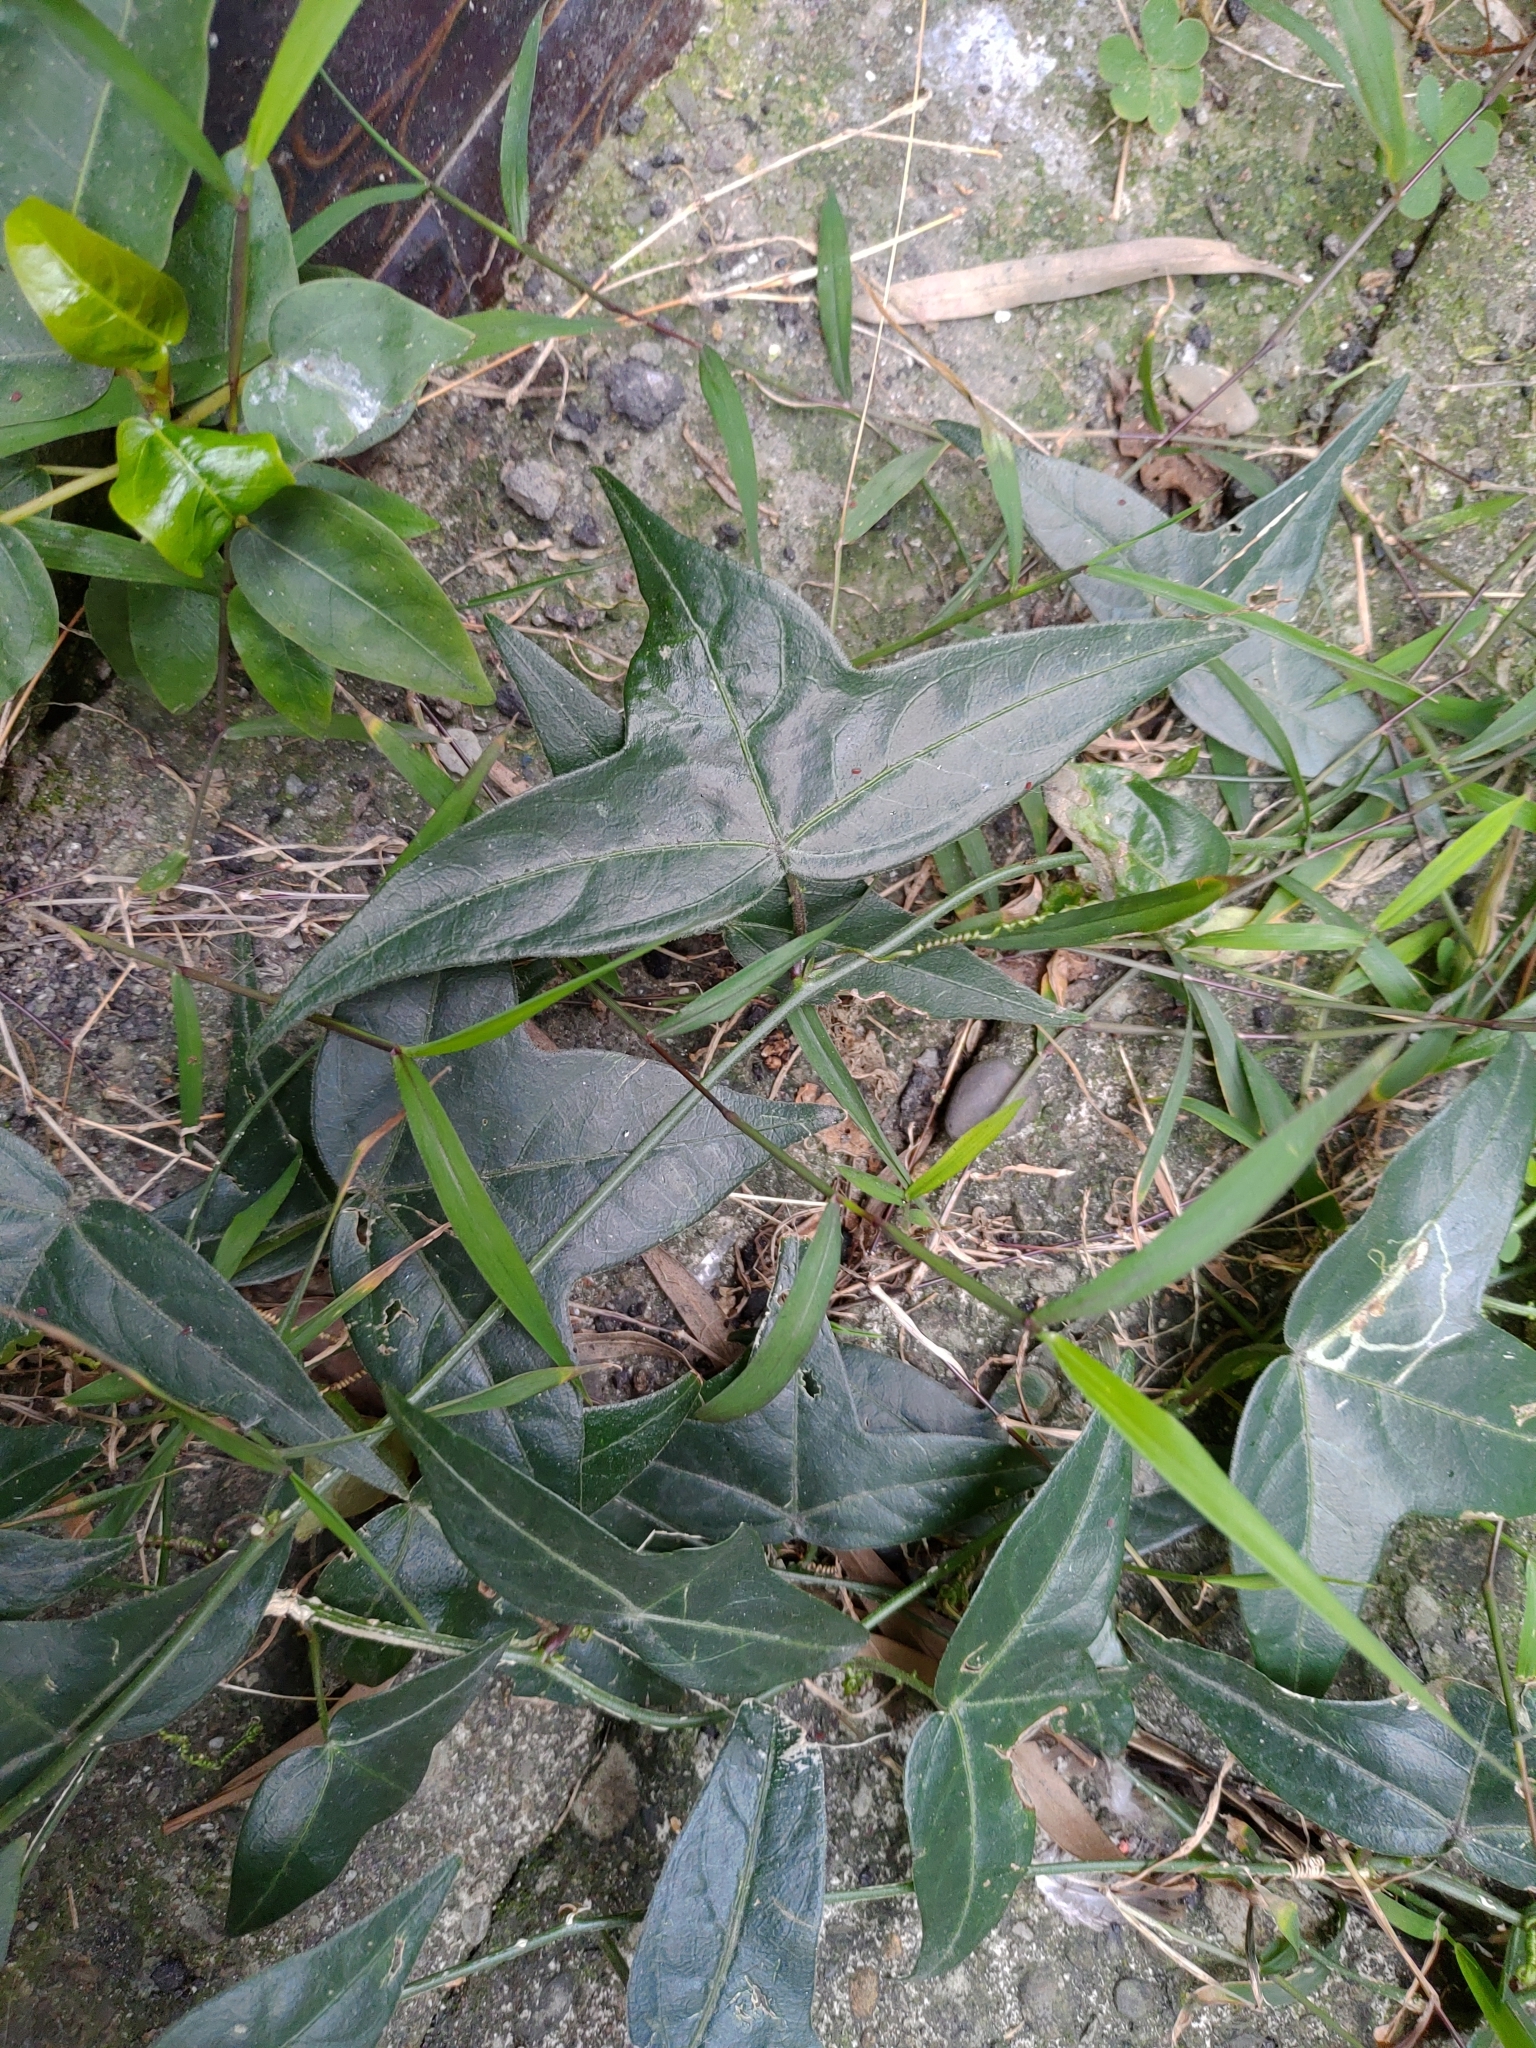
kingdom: Plantae
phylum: Tracheophyta
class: Magnoliopsida
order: Malpighiales
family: Passifloraceae
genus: Passiflora
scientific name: Passiflora suberosa
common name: Wild passionfruit
